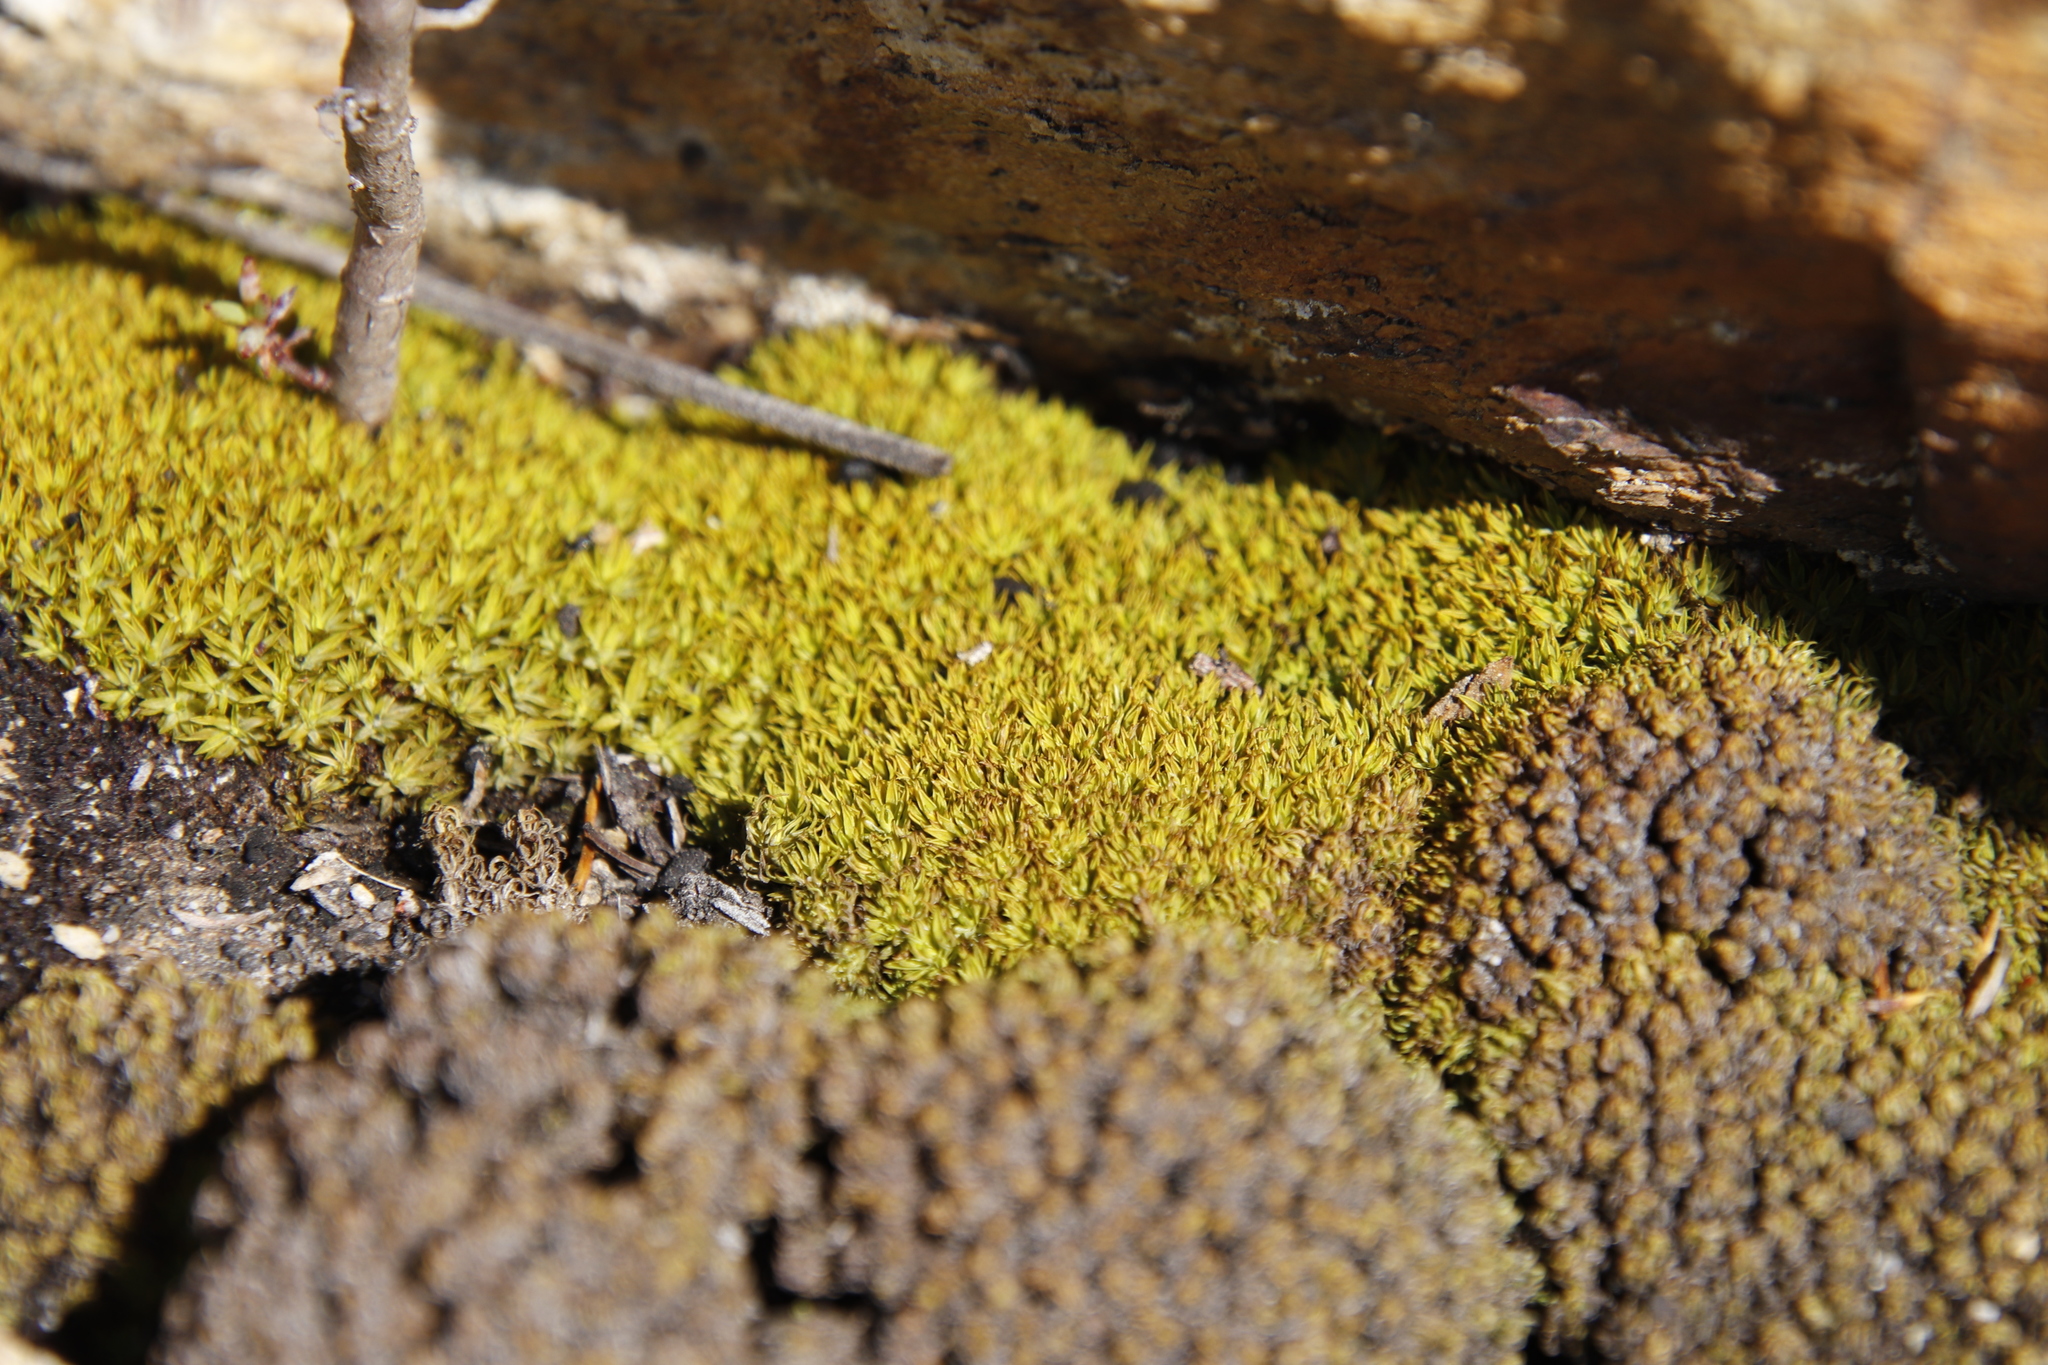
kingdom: Plantae
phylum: Bryophyta
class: Bryopsida
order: Pottiales
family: Pottiaceae
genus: Trichostomum
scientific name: Trichostomum brachydontium
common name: Variable crisp-moss
